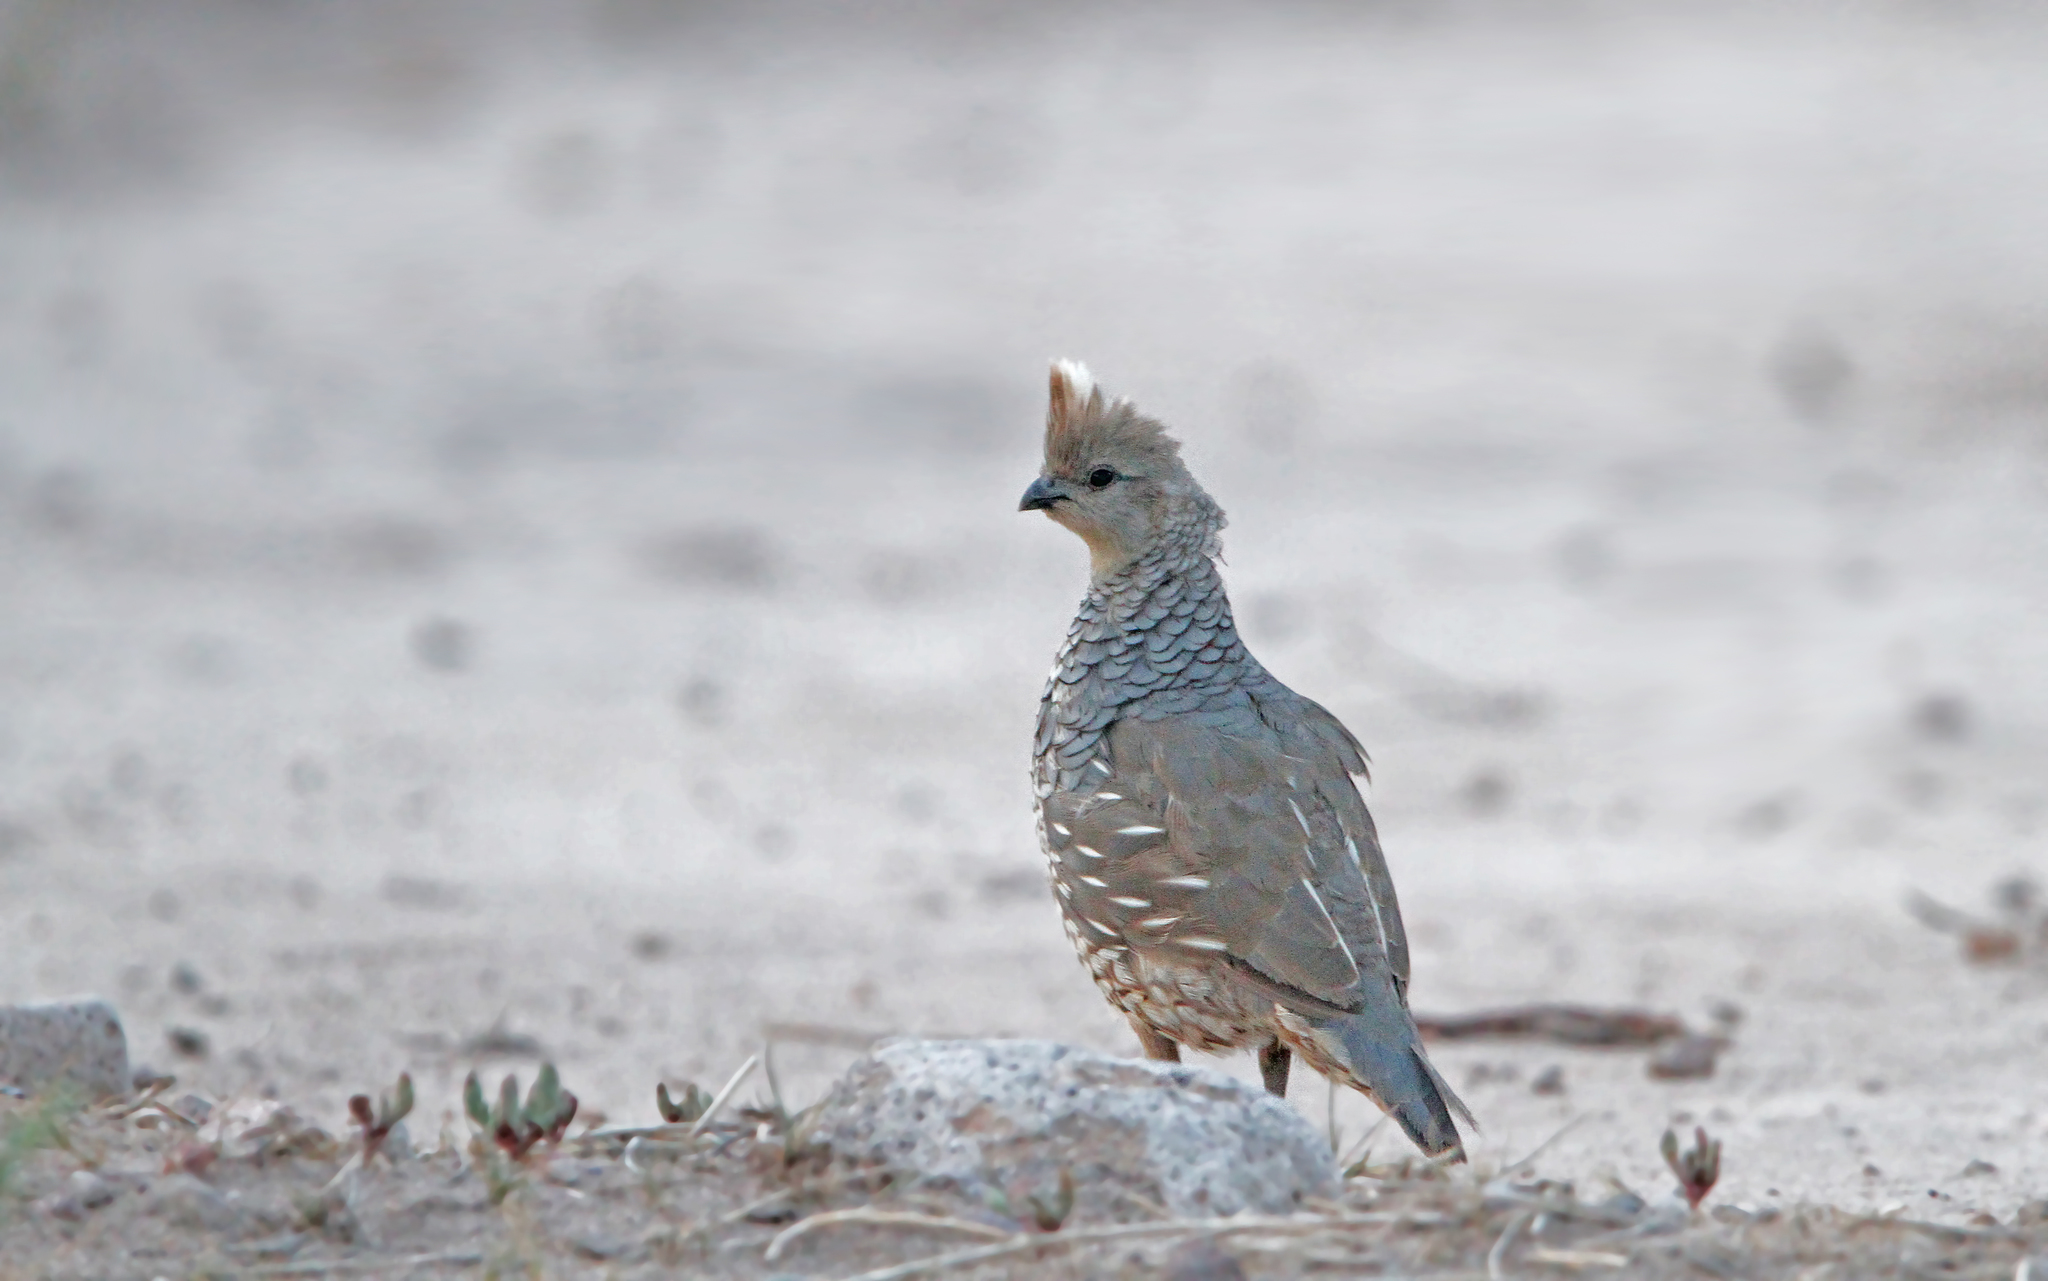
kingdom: Animalia
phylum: Chordata
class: Aves
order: Galliformes
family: Odontophoridae
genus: Callipepla
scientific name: Callipepla squamata
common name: Scaled quail
